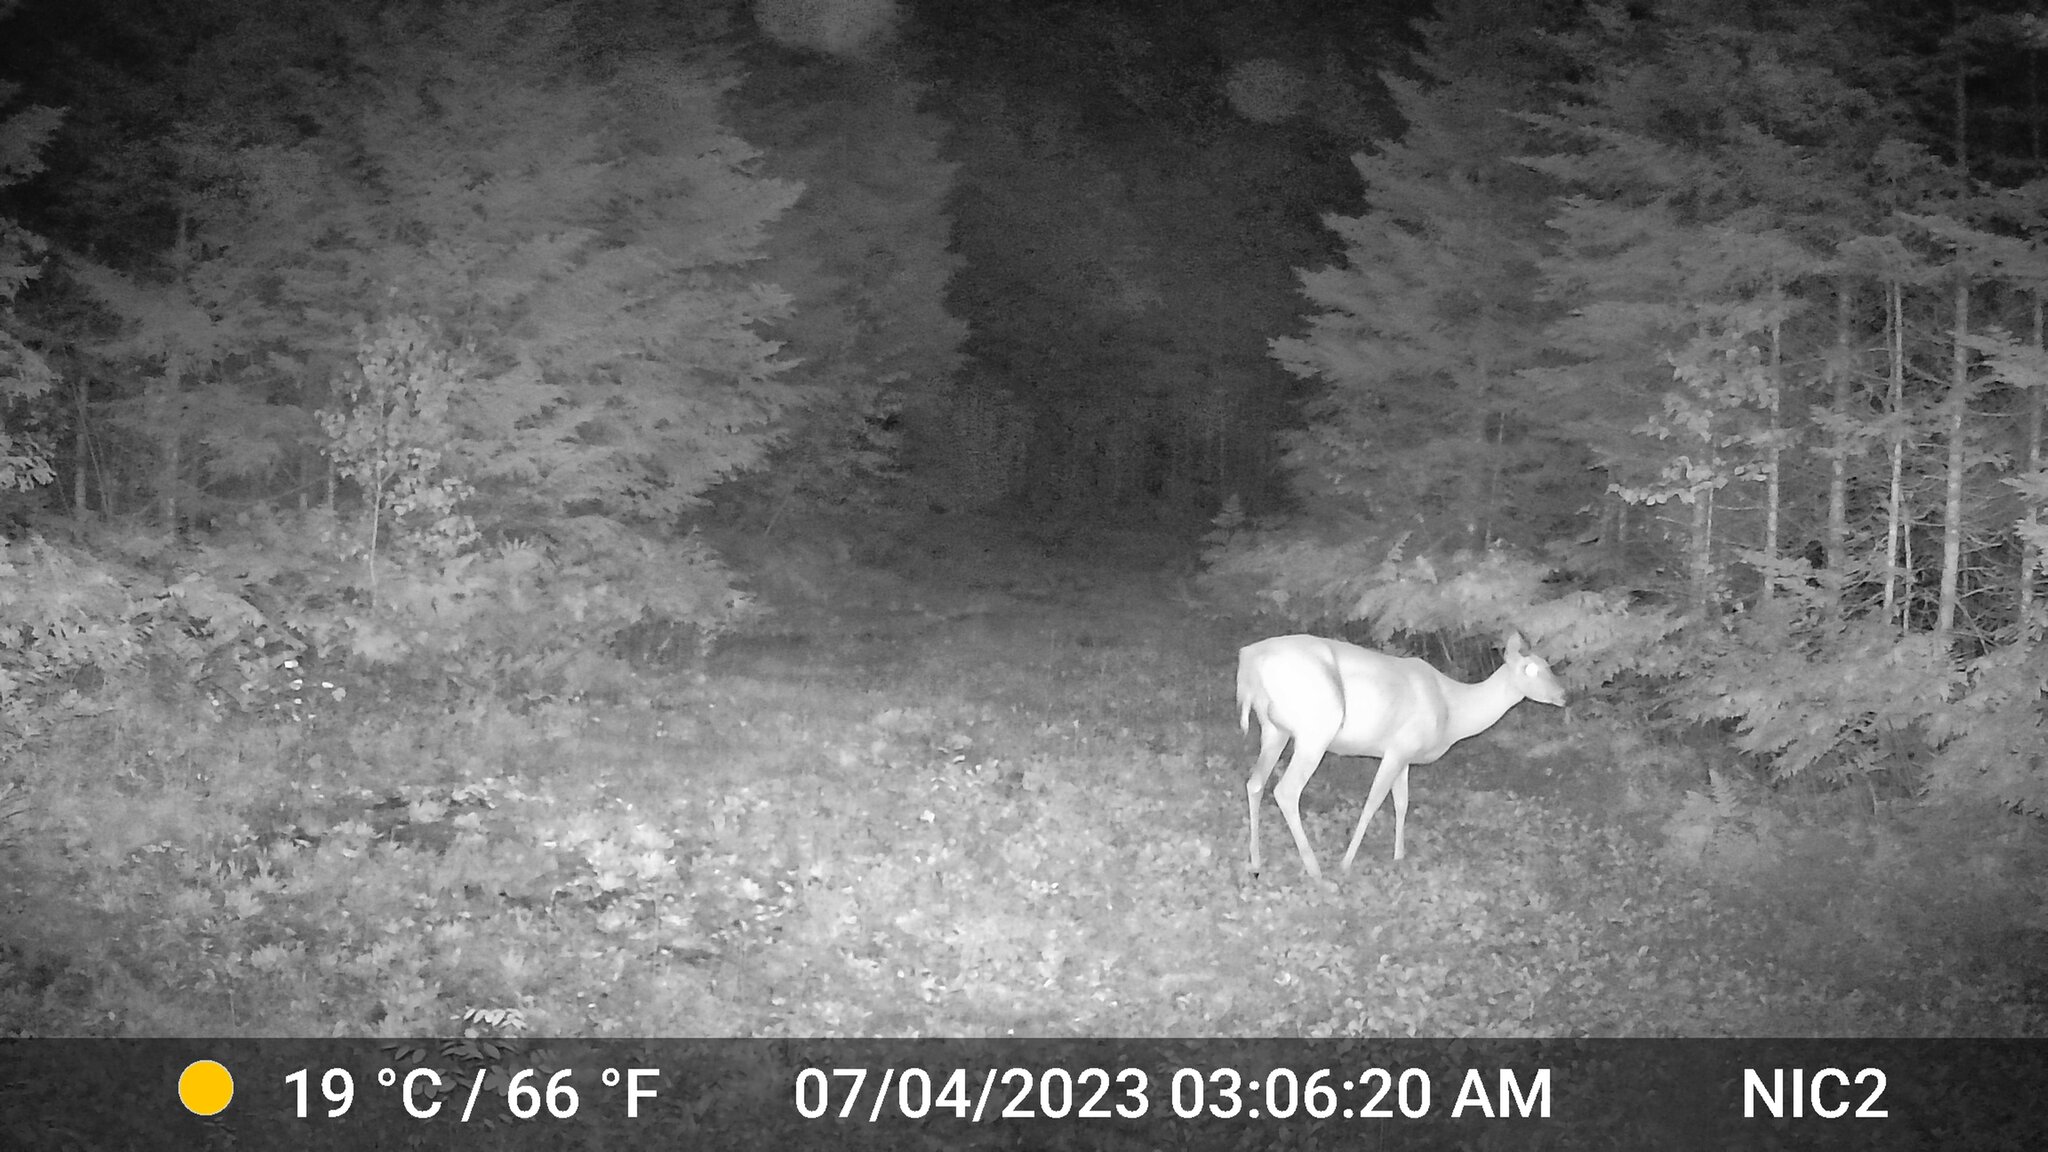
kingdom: Animalia
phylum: Chordata
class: Mammalia
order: Artiodactyla
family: Cervidae
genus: Odocoileus
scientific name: Odocoileus virginianus
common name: White-tailed deer
